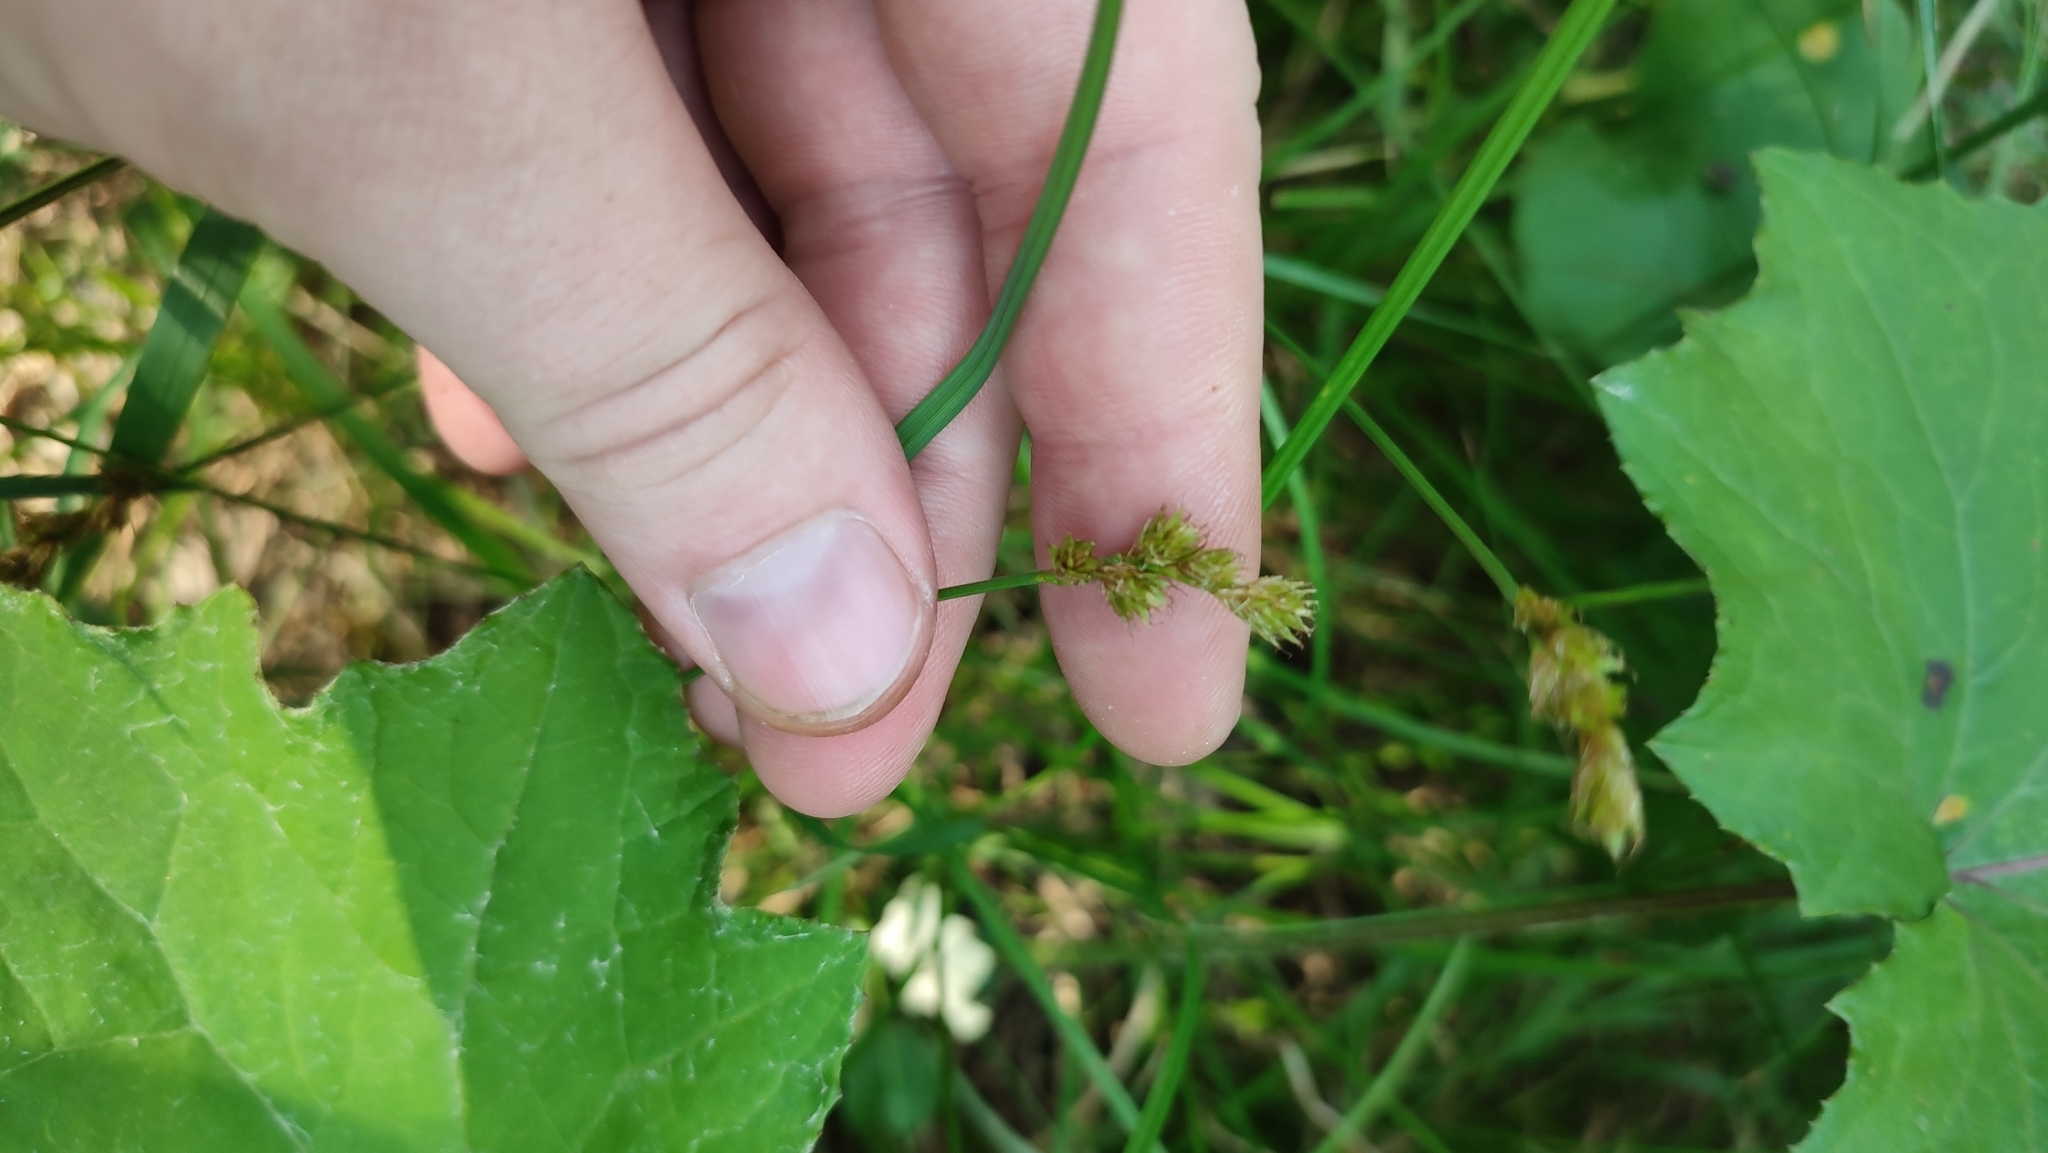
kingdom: Plantae
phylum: Tracheophyta
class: Liliopsida
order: Poales
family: Cyperaceae
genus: Carex
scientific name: Carex leporina
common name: Oval sedge
